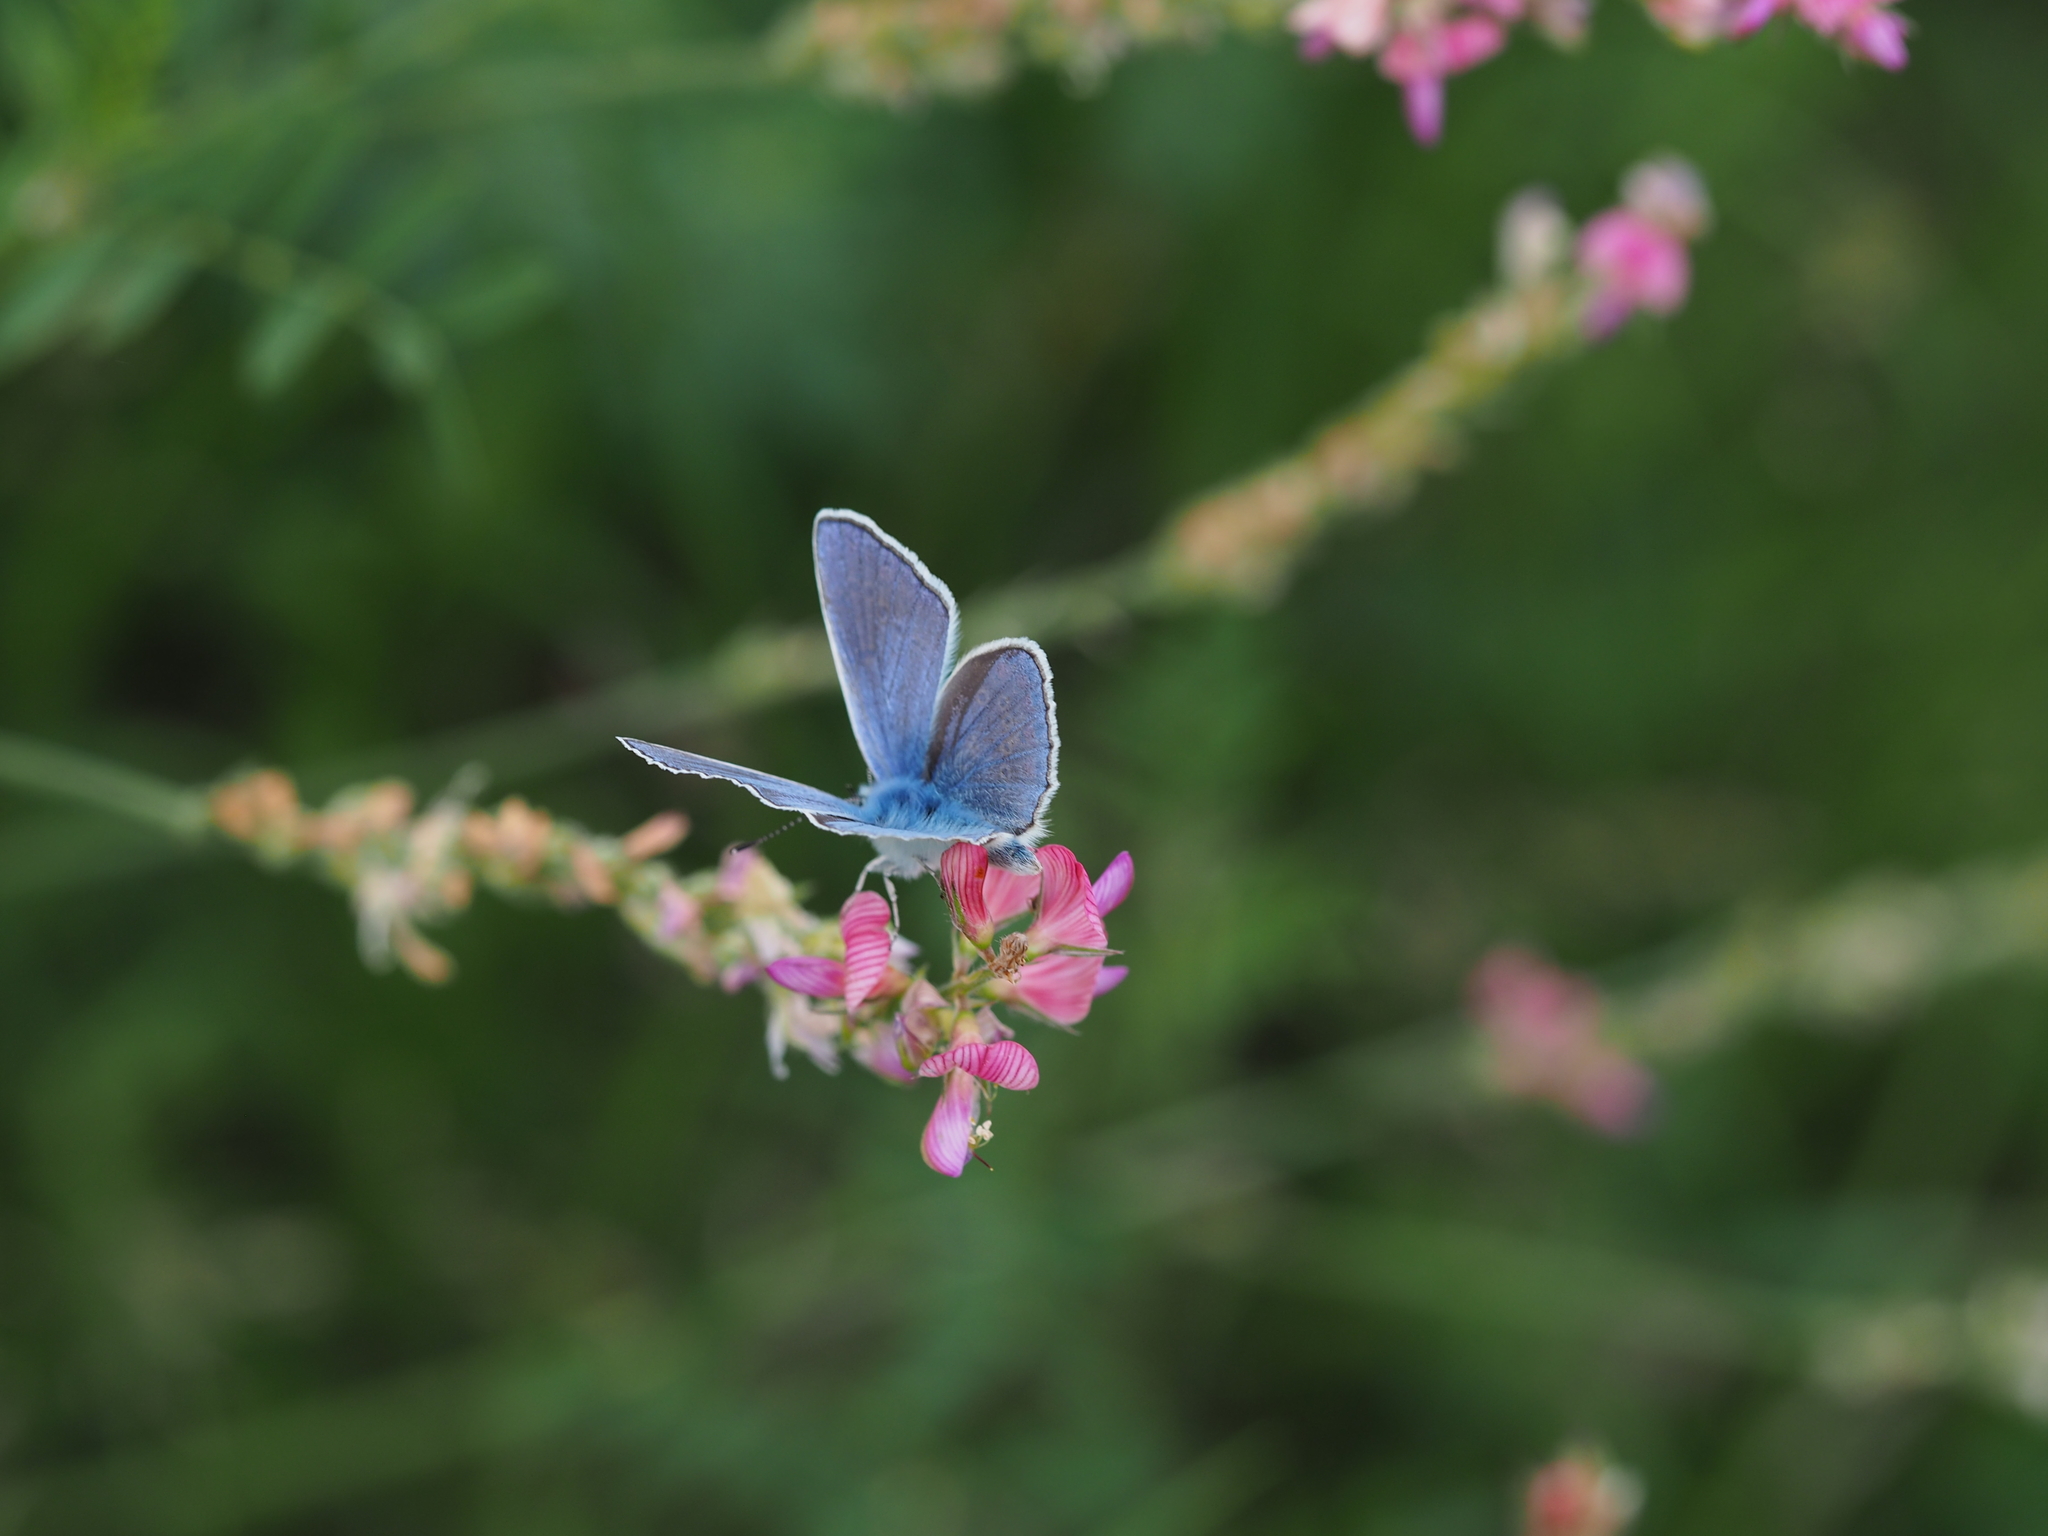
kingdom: Animalia
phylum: Arthropoda
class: Insecta
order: Lepidoptera
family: Lycaenidae
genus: Polyommatus
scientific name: Polyommatus thersites
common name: Chapman's blue
